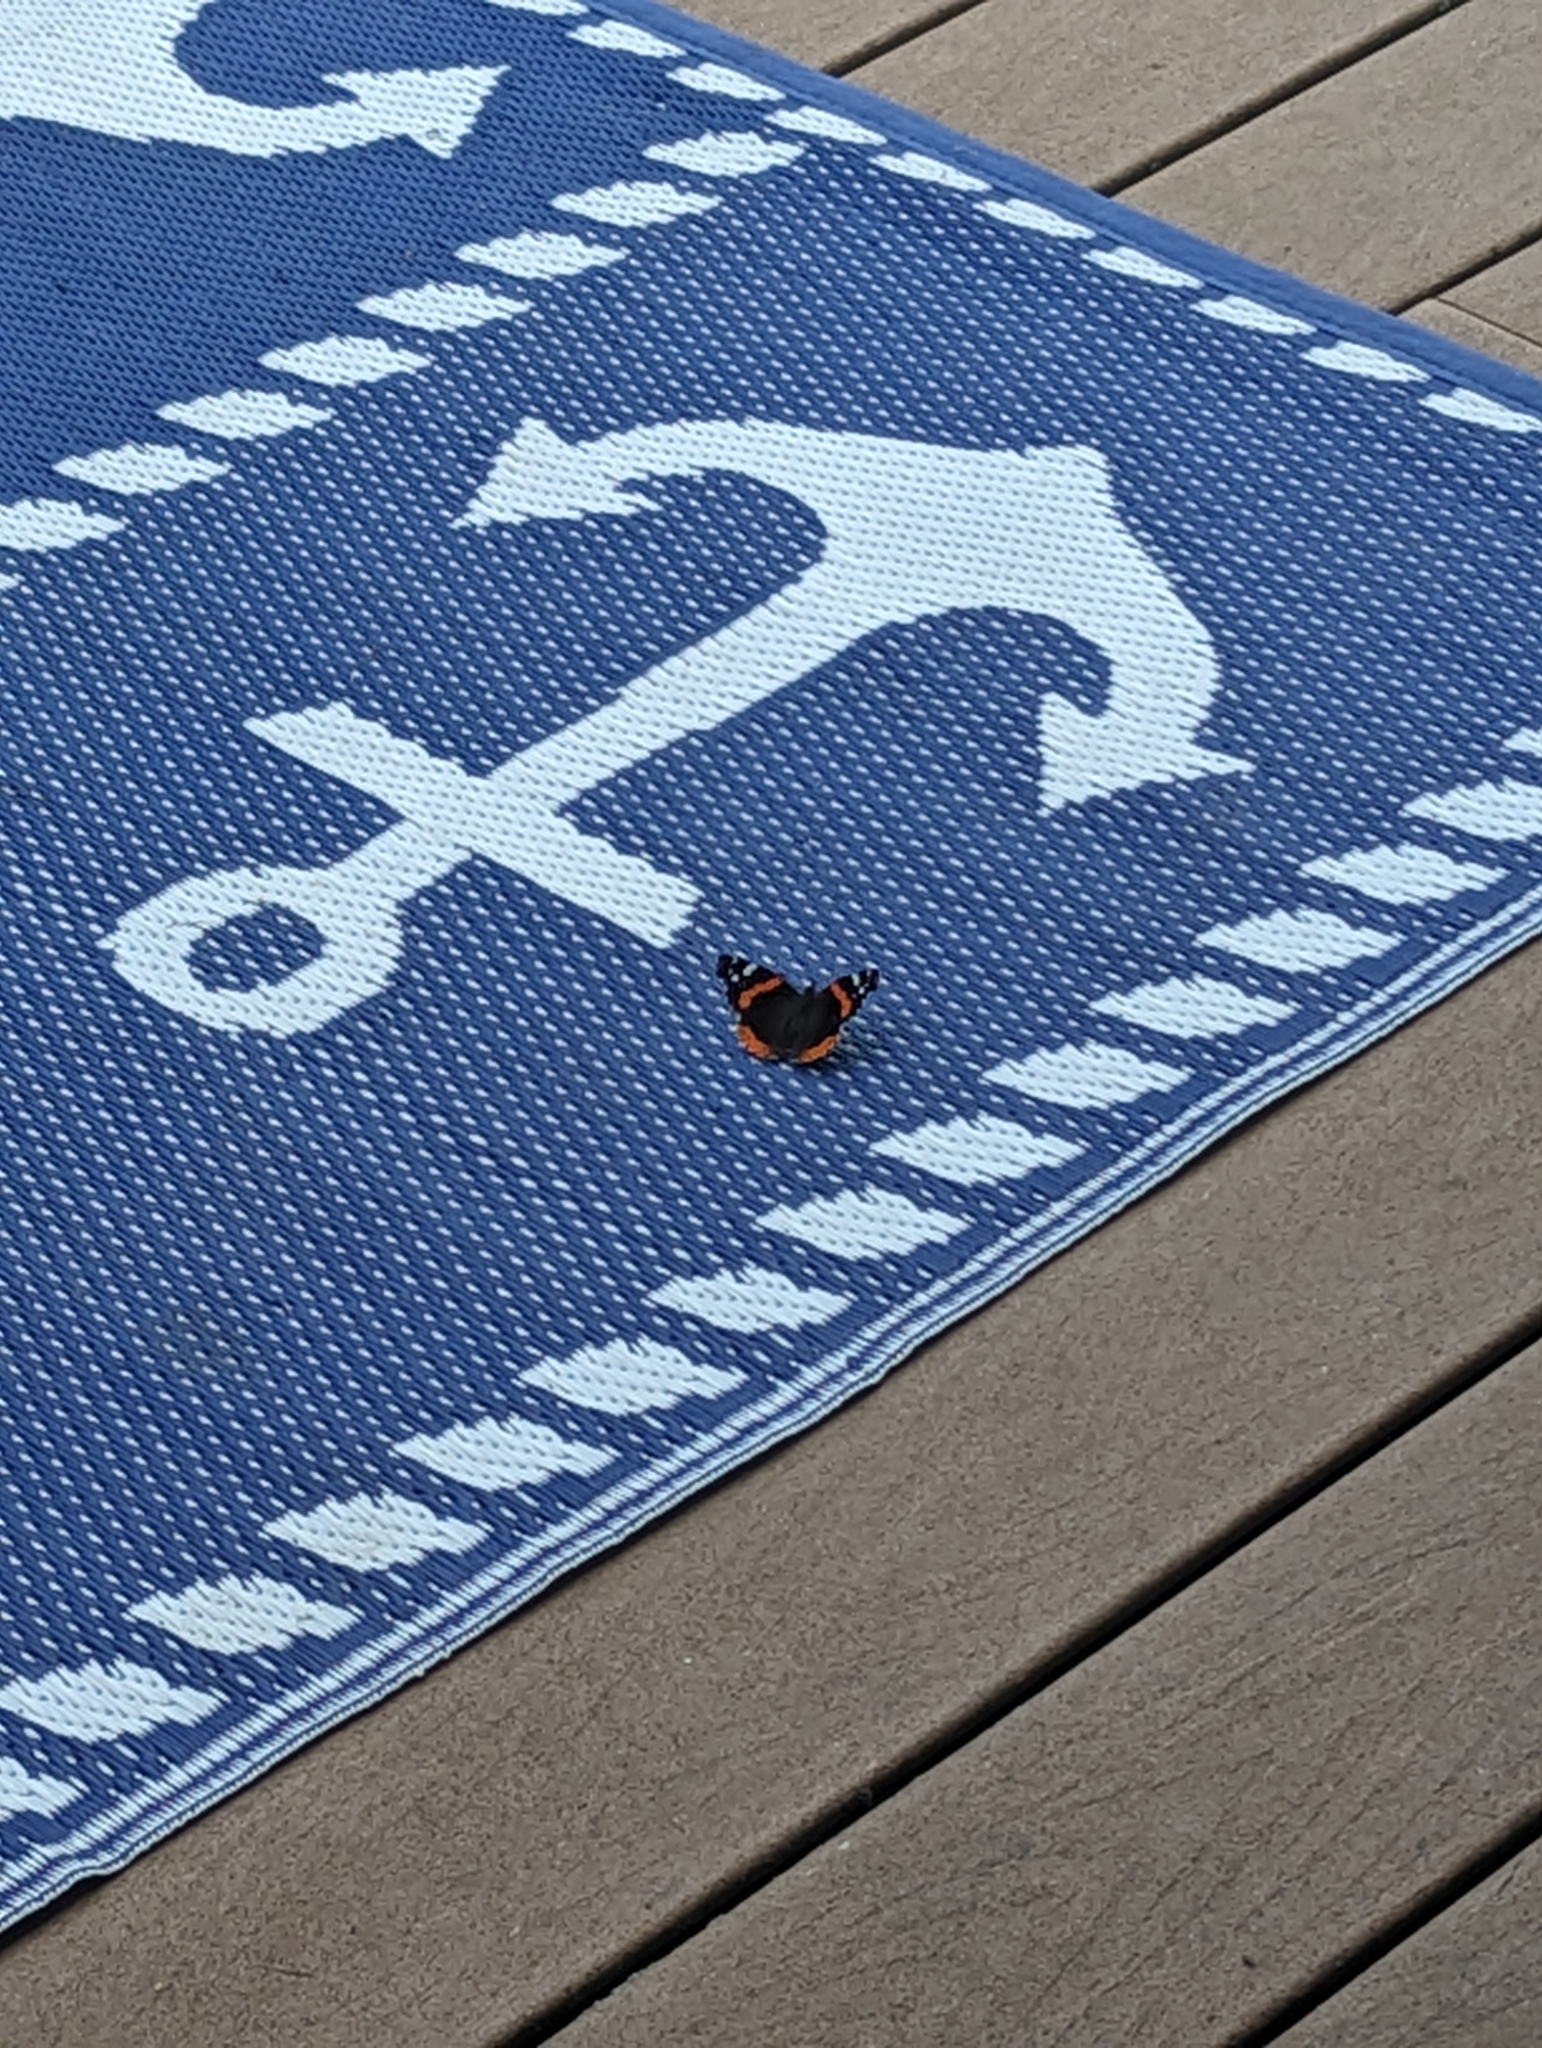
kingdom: Animalia
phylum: Arthropoda
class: Insecta
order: Lepidoptera
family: Nymphalidae
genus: Vanessa
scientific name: Vanessa atalanta
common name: Red admiral
